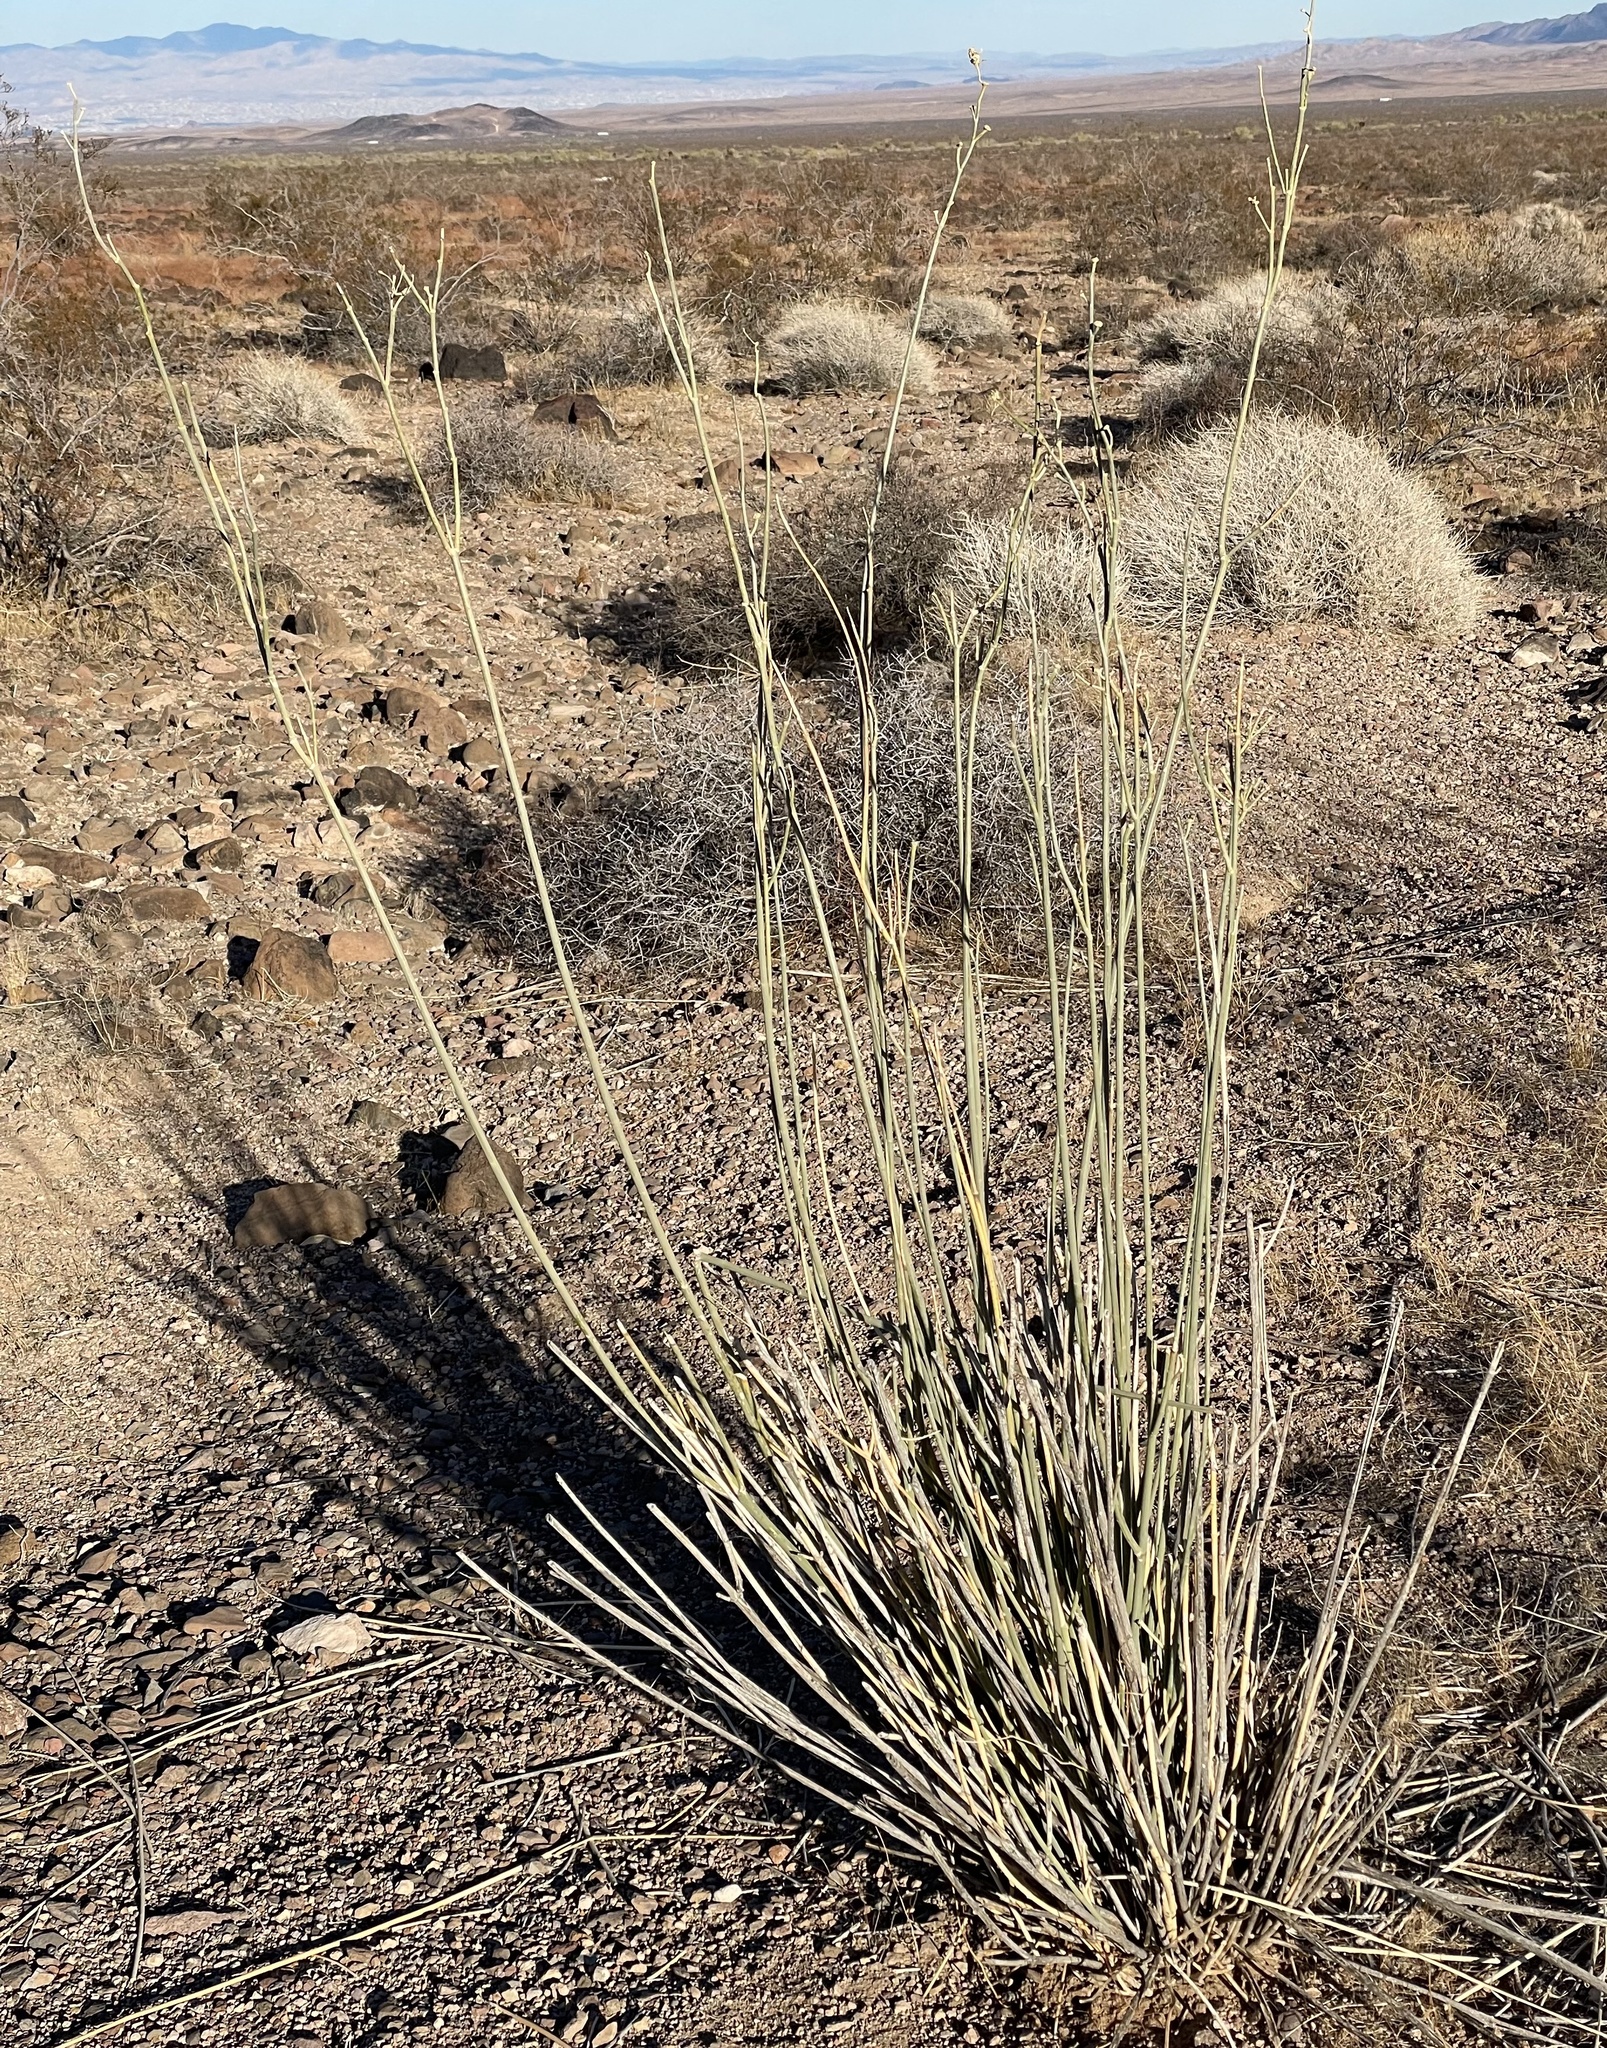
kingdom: Plantae
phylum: Tracheophyta
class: Magnoliopsida
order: Gentianales
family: Apocynaceae
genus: Asclepias
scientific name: Asclepias subulata
